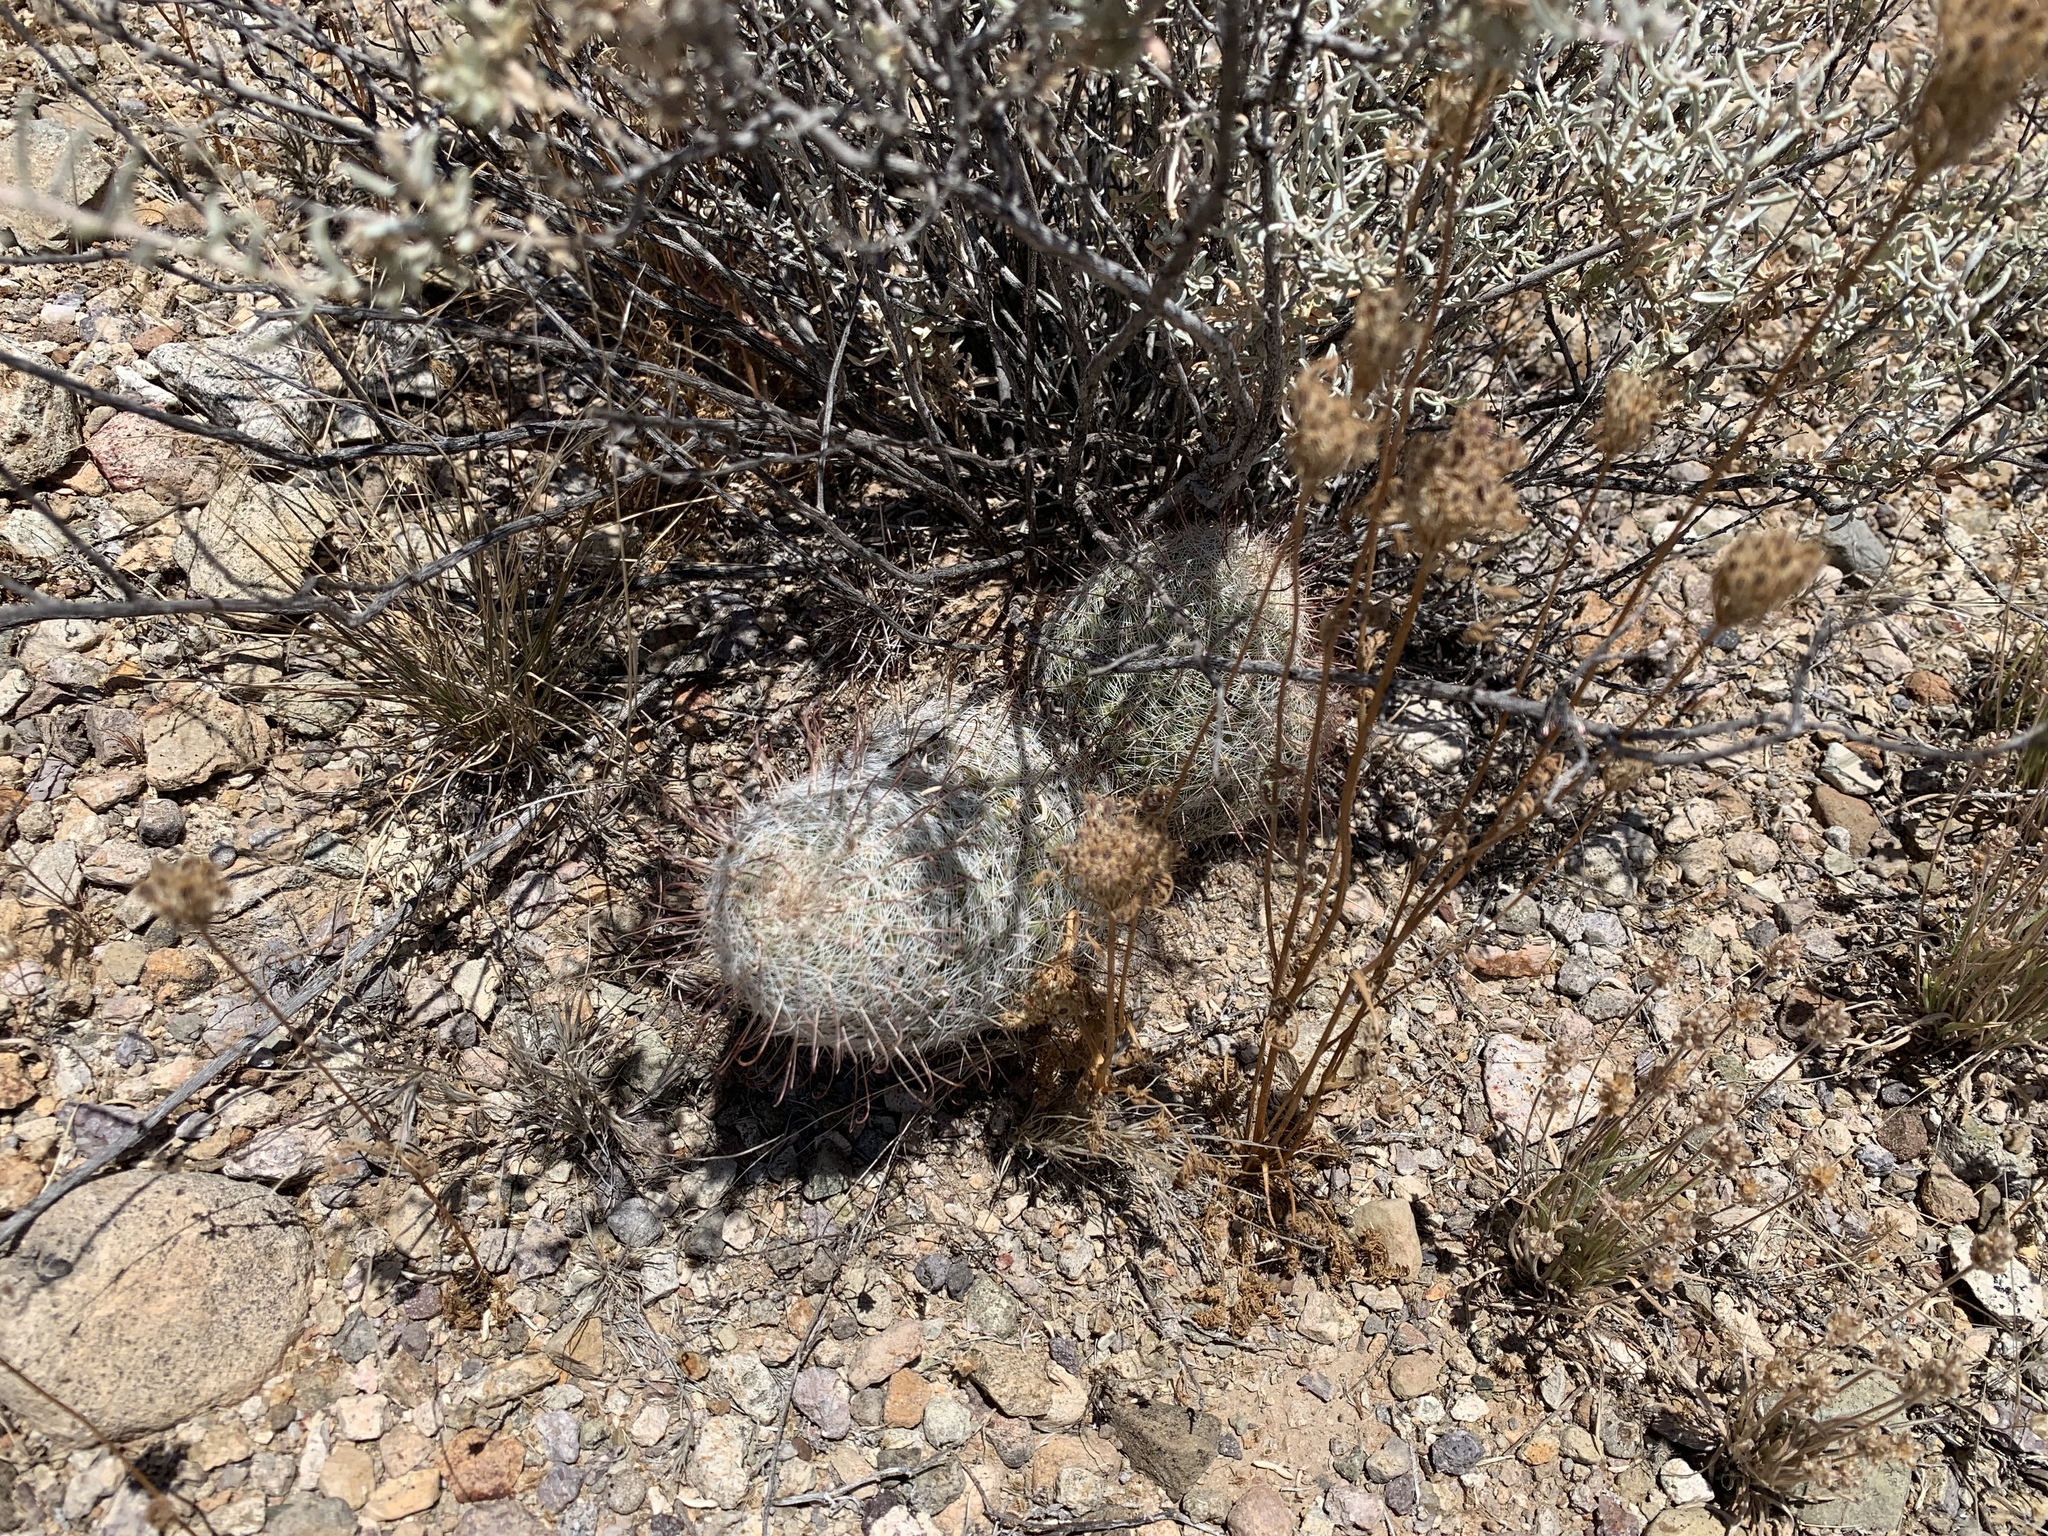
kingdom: Plantae
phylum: Tracheophyta
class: Magnoliopsida
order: Caryophyllales
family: Cactaceae
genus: Cochemiea
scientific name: Cochemiea grahamii
